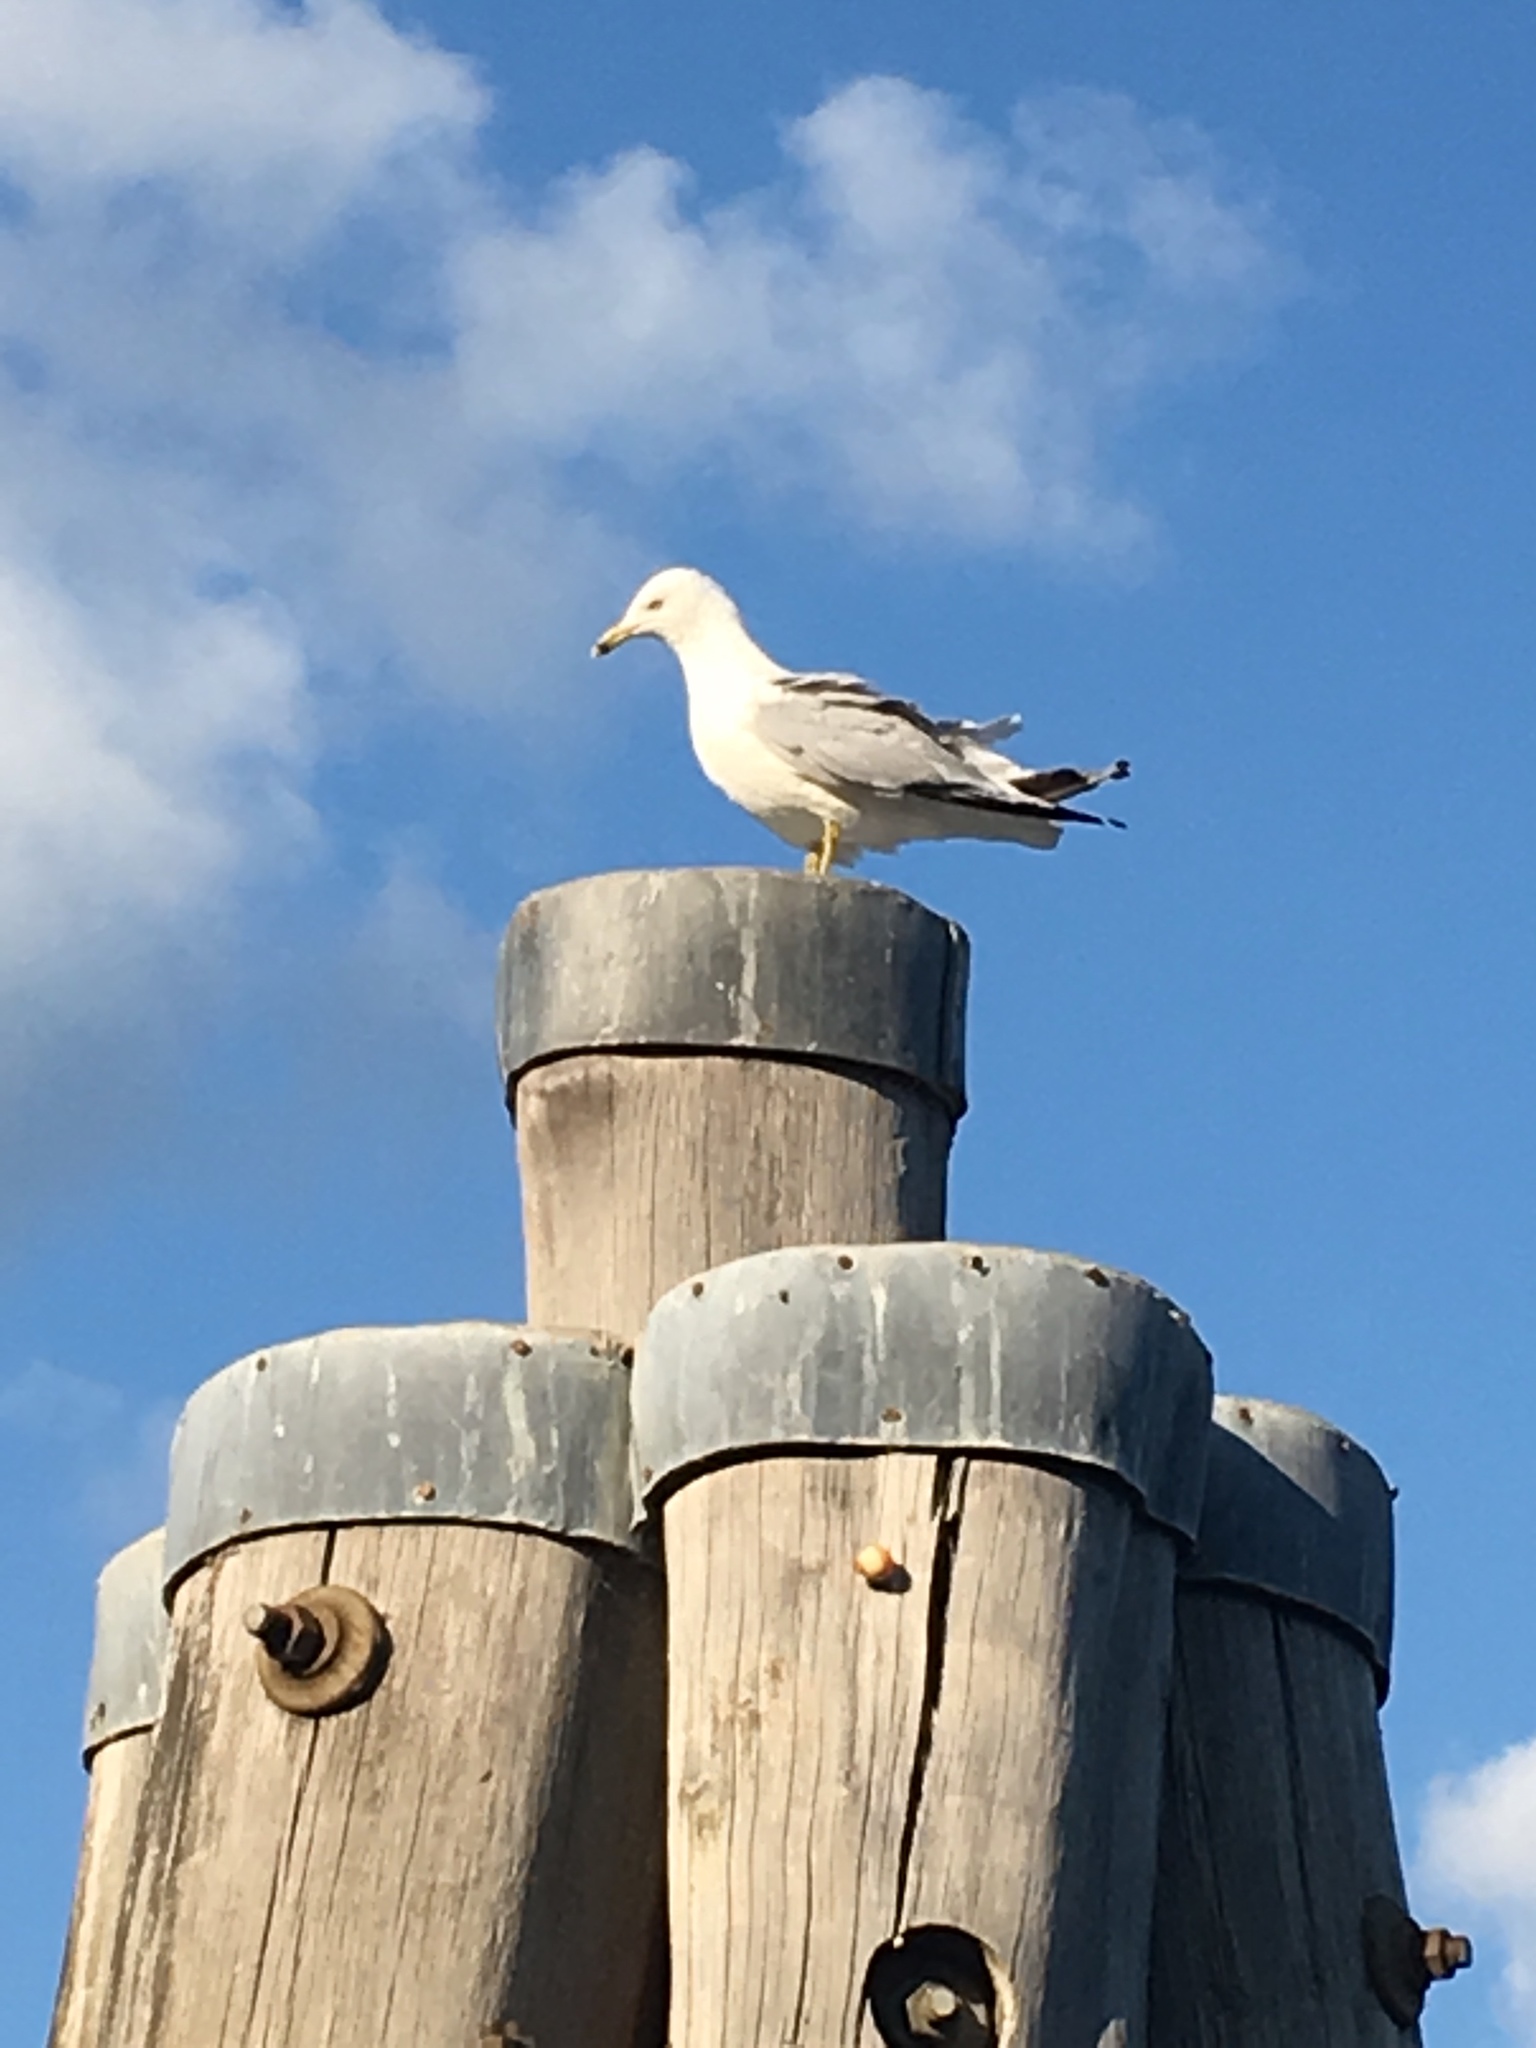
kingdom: Animalia
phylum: Chordata
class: Aves
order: Charadriiformes
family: Laridae
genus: Larus
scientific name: Larus delawarensis
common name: Ring-billed gull
